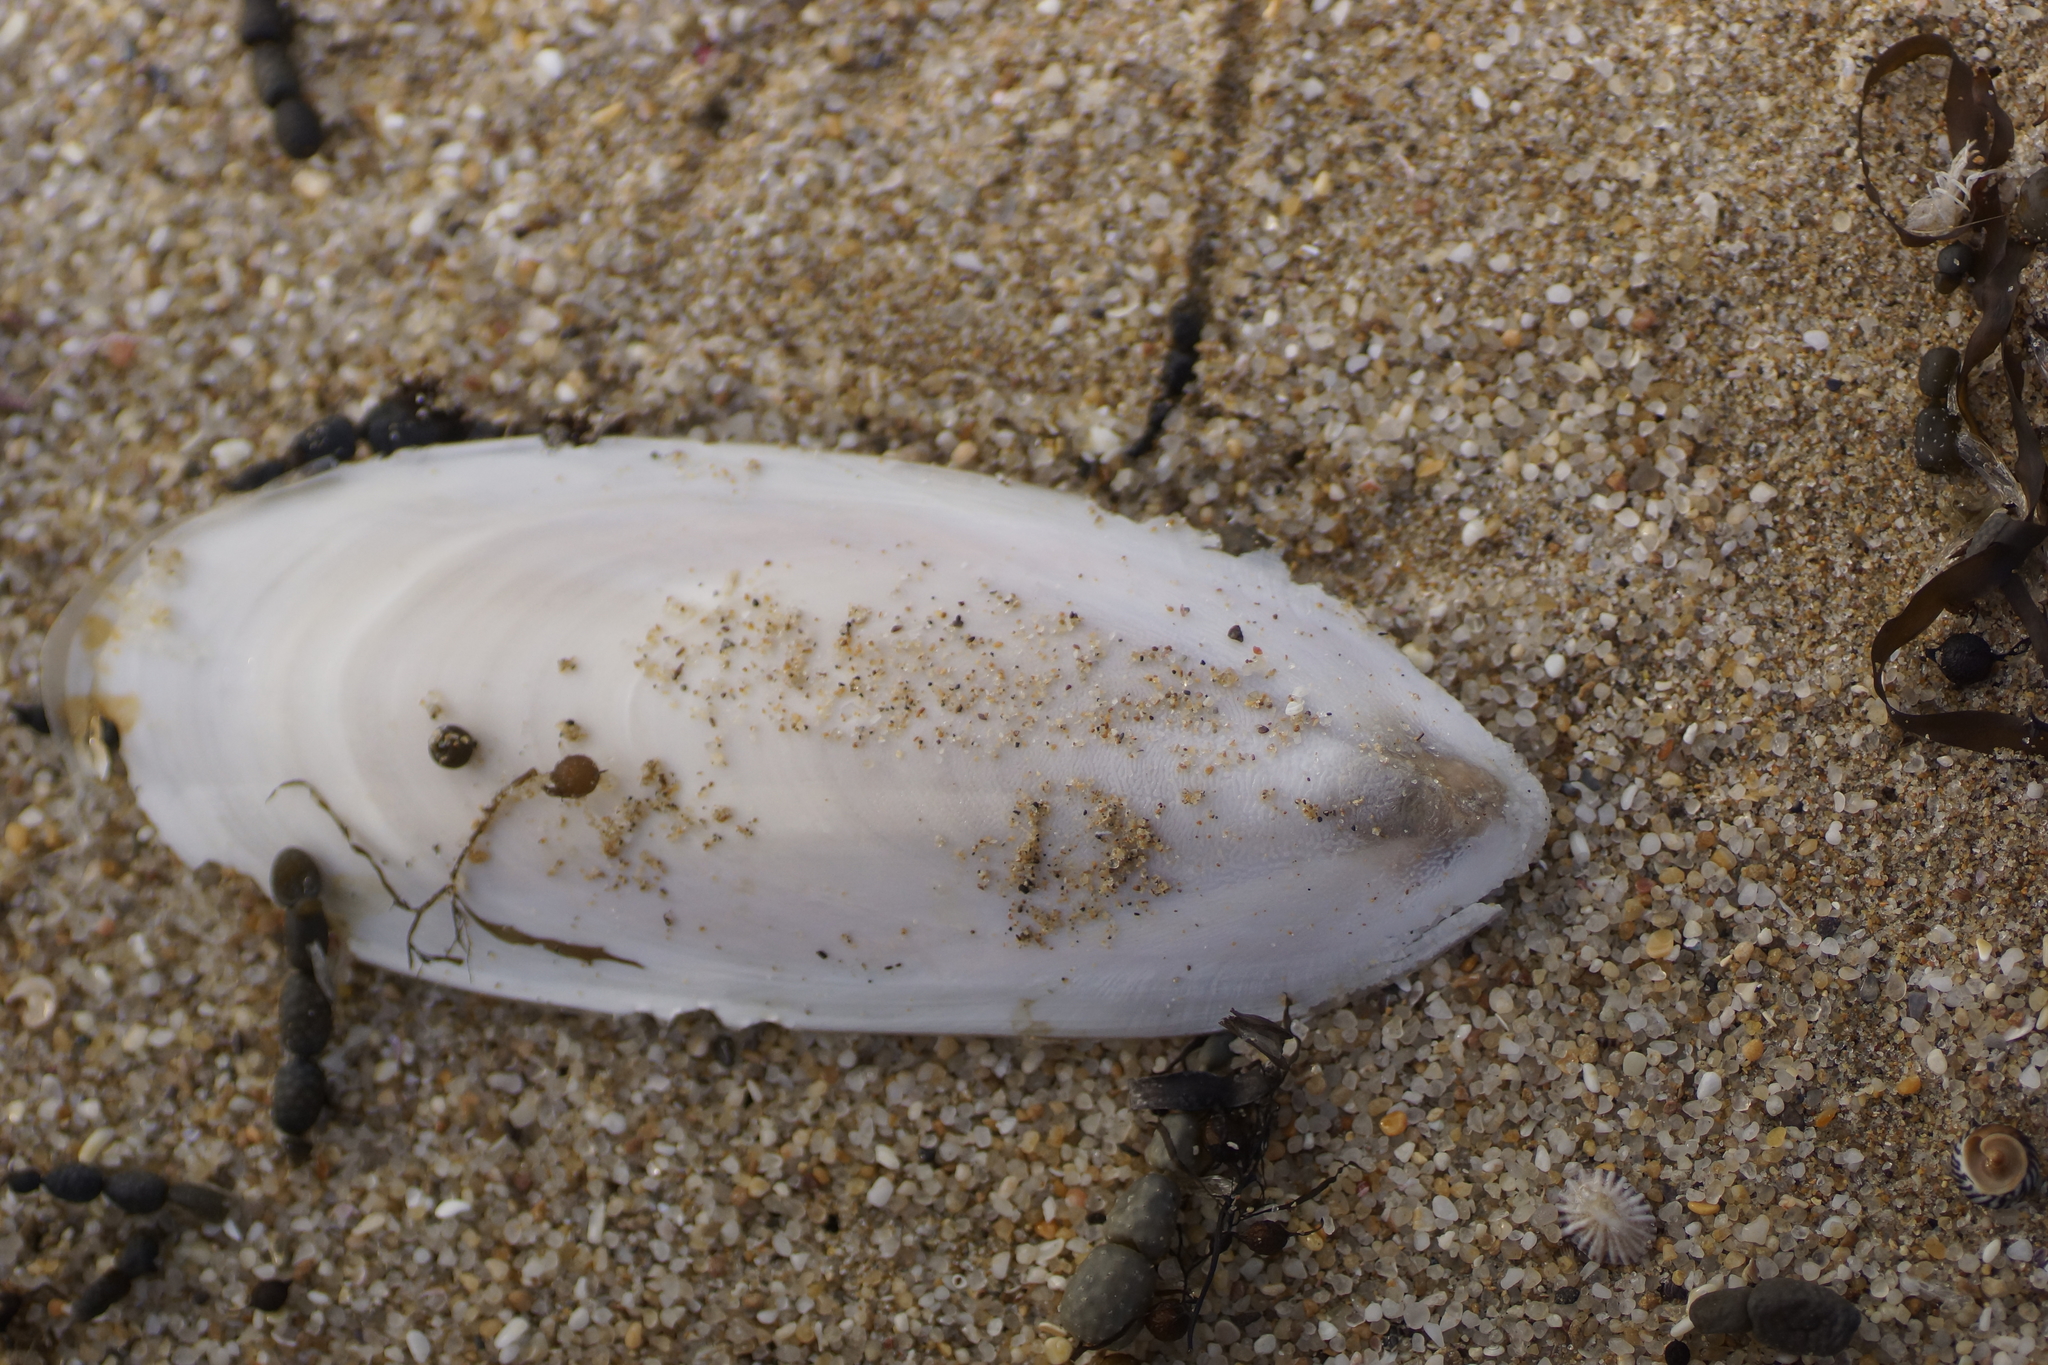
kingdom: Animalia
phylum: Mollusca
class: Cephalopoda
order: Sepiida
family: Sepiidae
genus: Ascarosepion
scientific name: Ascarosepion apama
